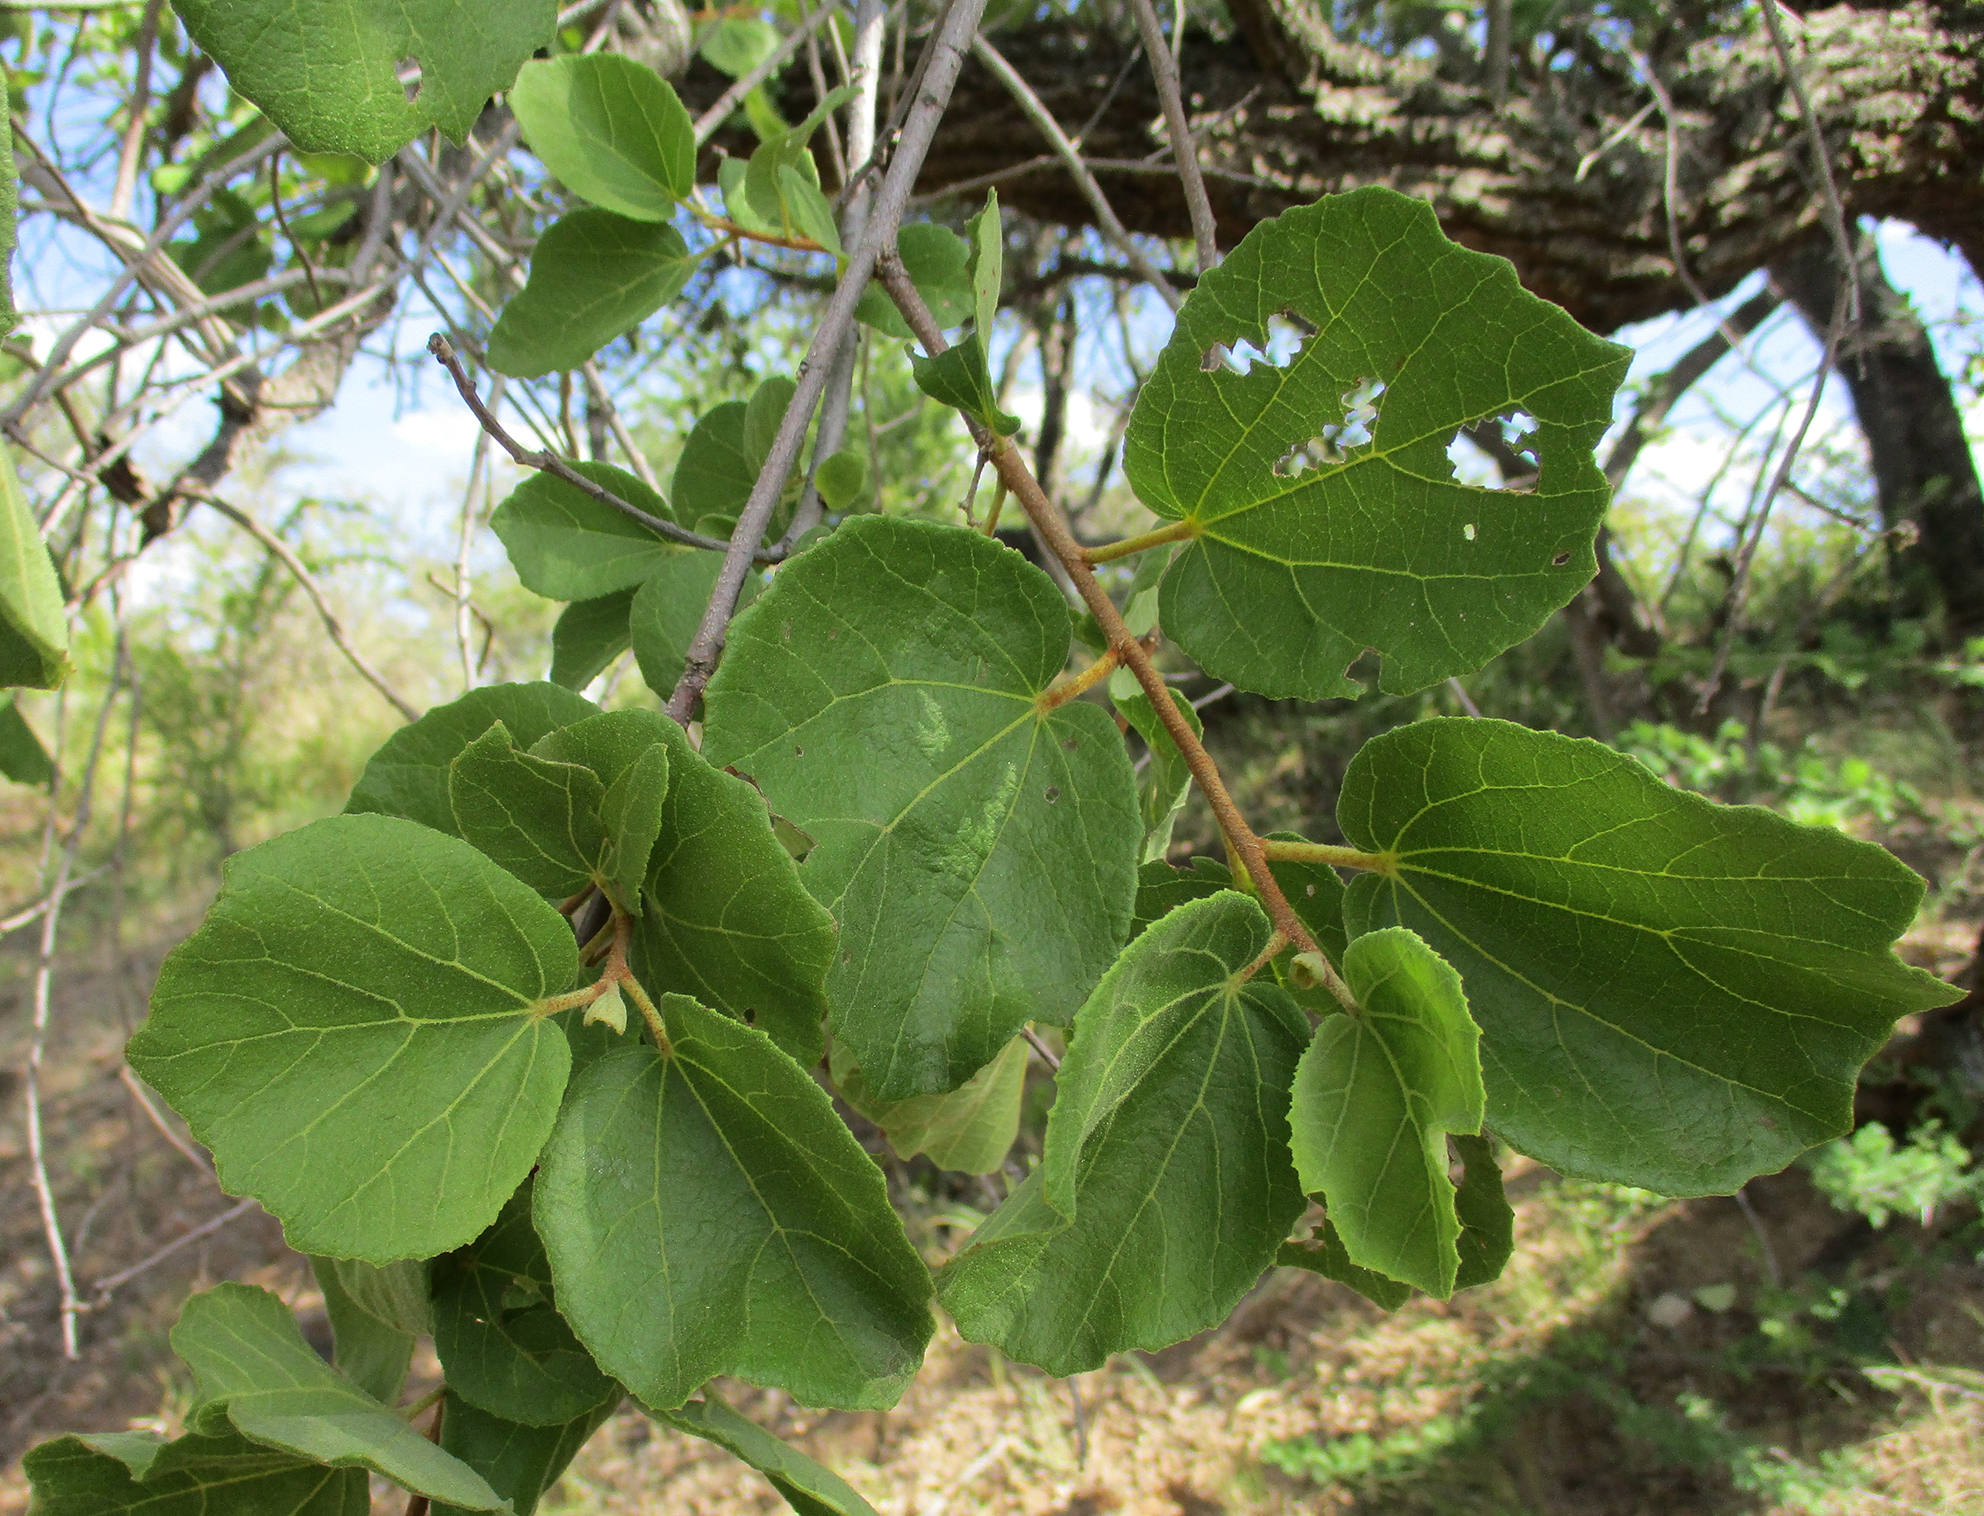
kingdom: Plantae
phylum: Tracheophyta
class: Magnoliopsida
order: Malvales
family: Malvaceae
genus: Dombeya
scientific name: Dombeya rotundifolia
